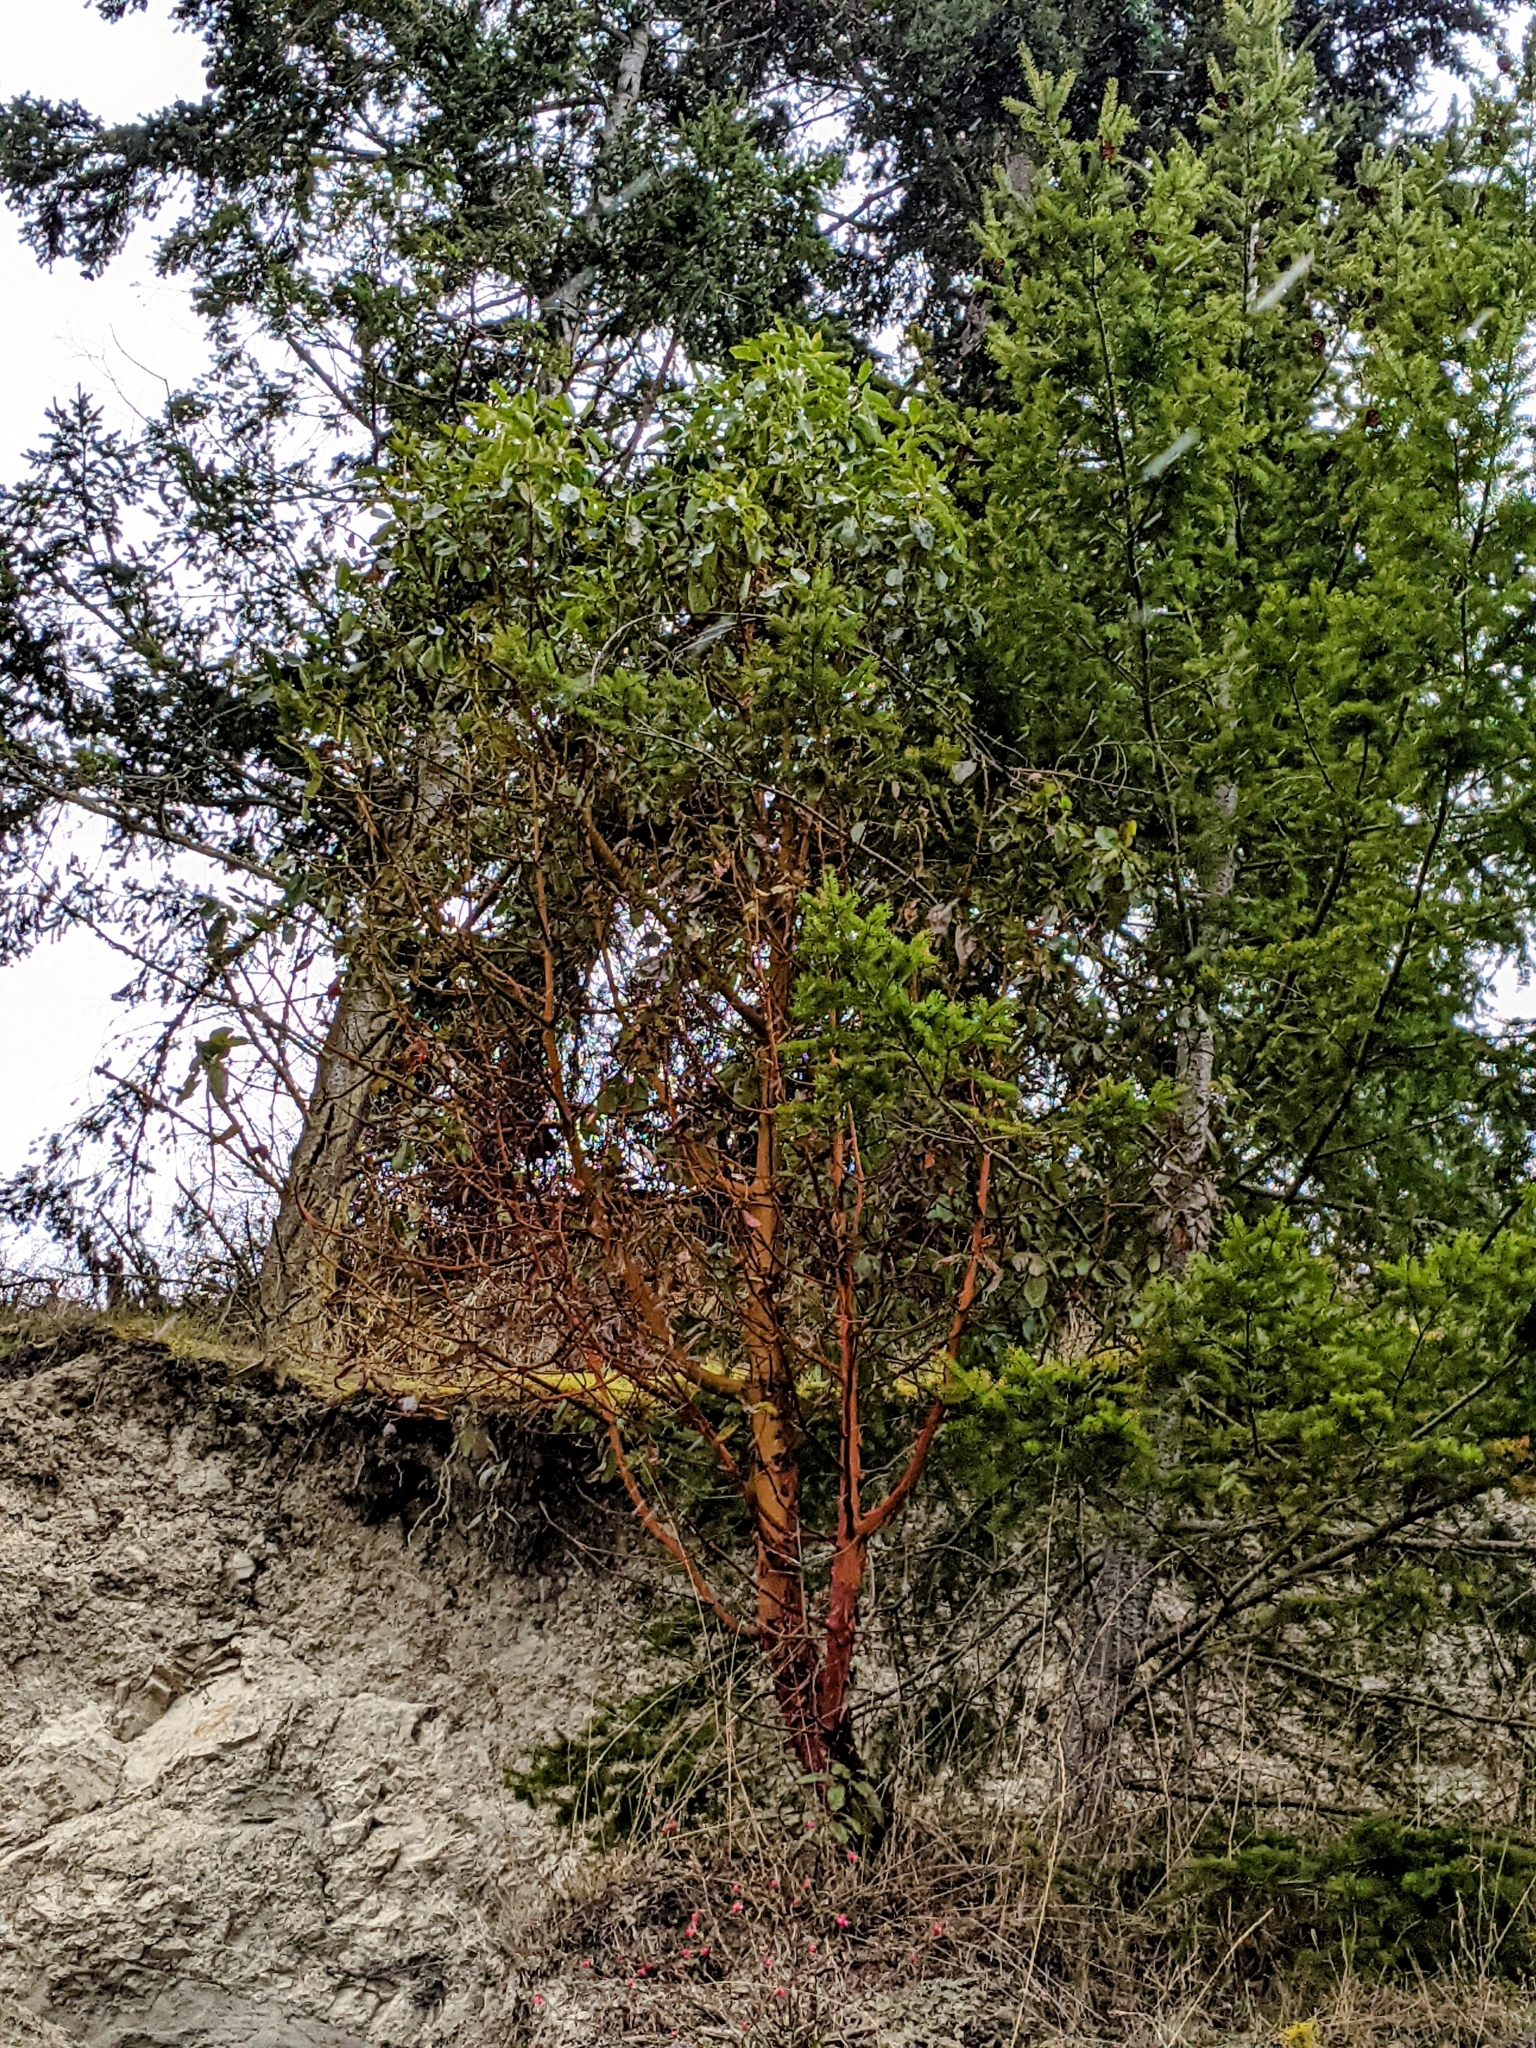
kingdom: Plantae
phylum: Tracheophyta
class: Magnoliopsida
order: Ericales
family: Ericaceae
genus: Arbutus
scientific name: Arbutus menziesii
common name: Pacific madrone
